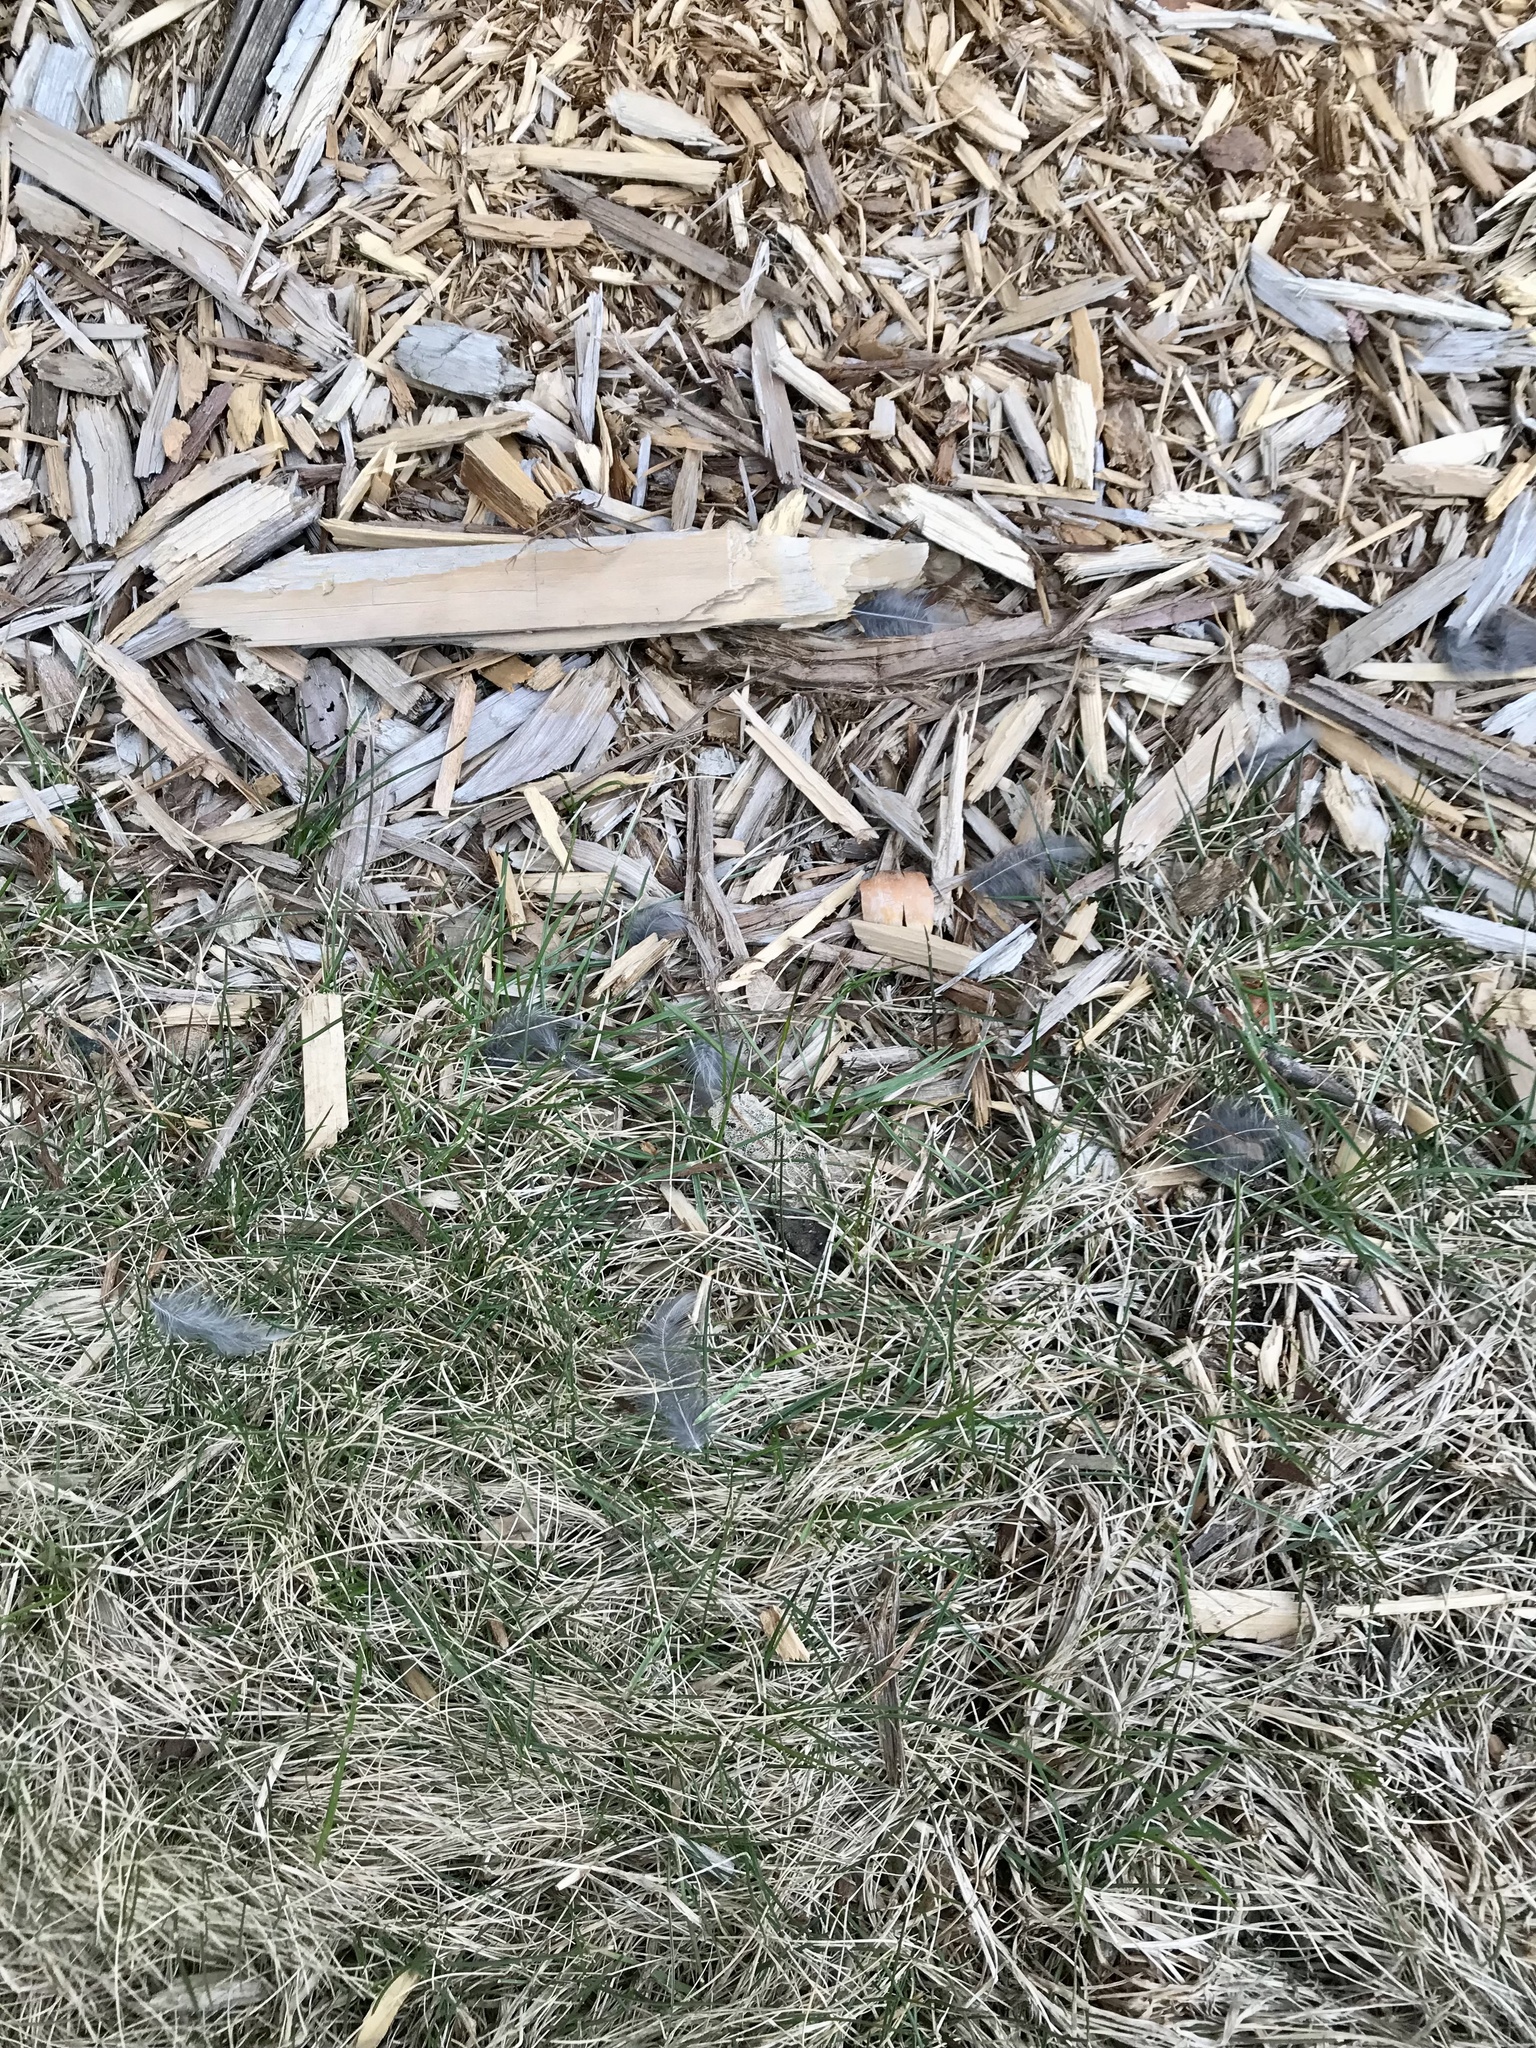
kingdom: Animalia
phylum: Chordata
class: Aves
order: Passeriformes
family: Turdidae
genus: Turdus
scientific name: Turdus migratorius
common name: American robin
